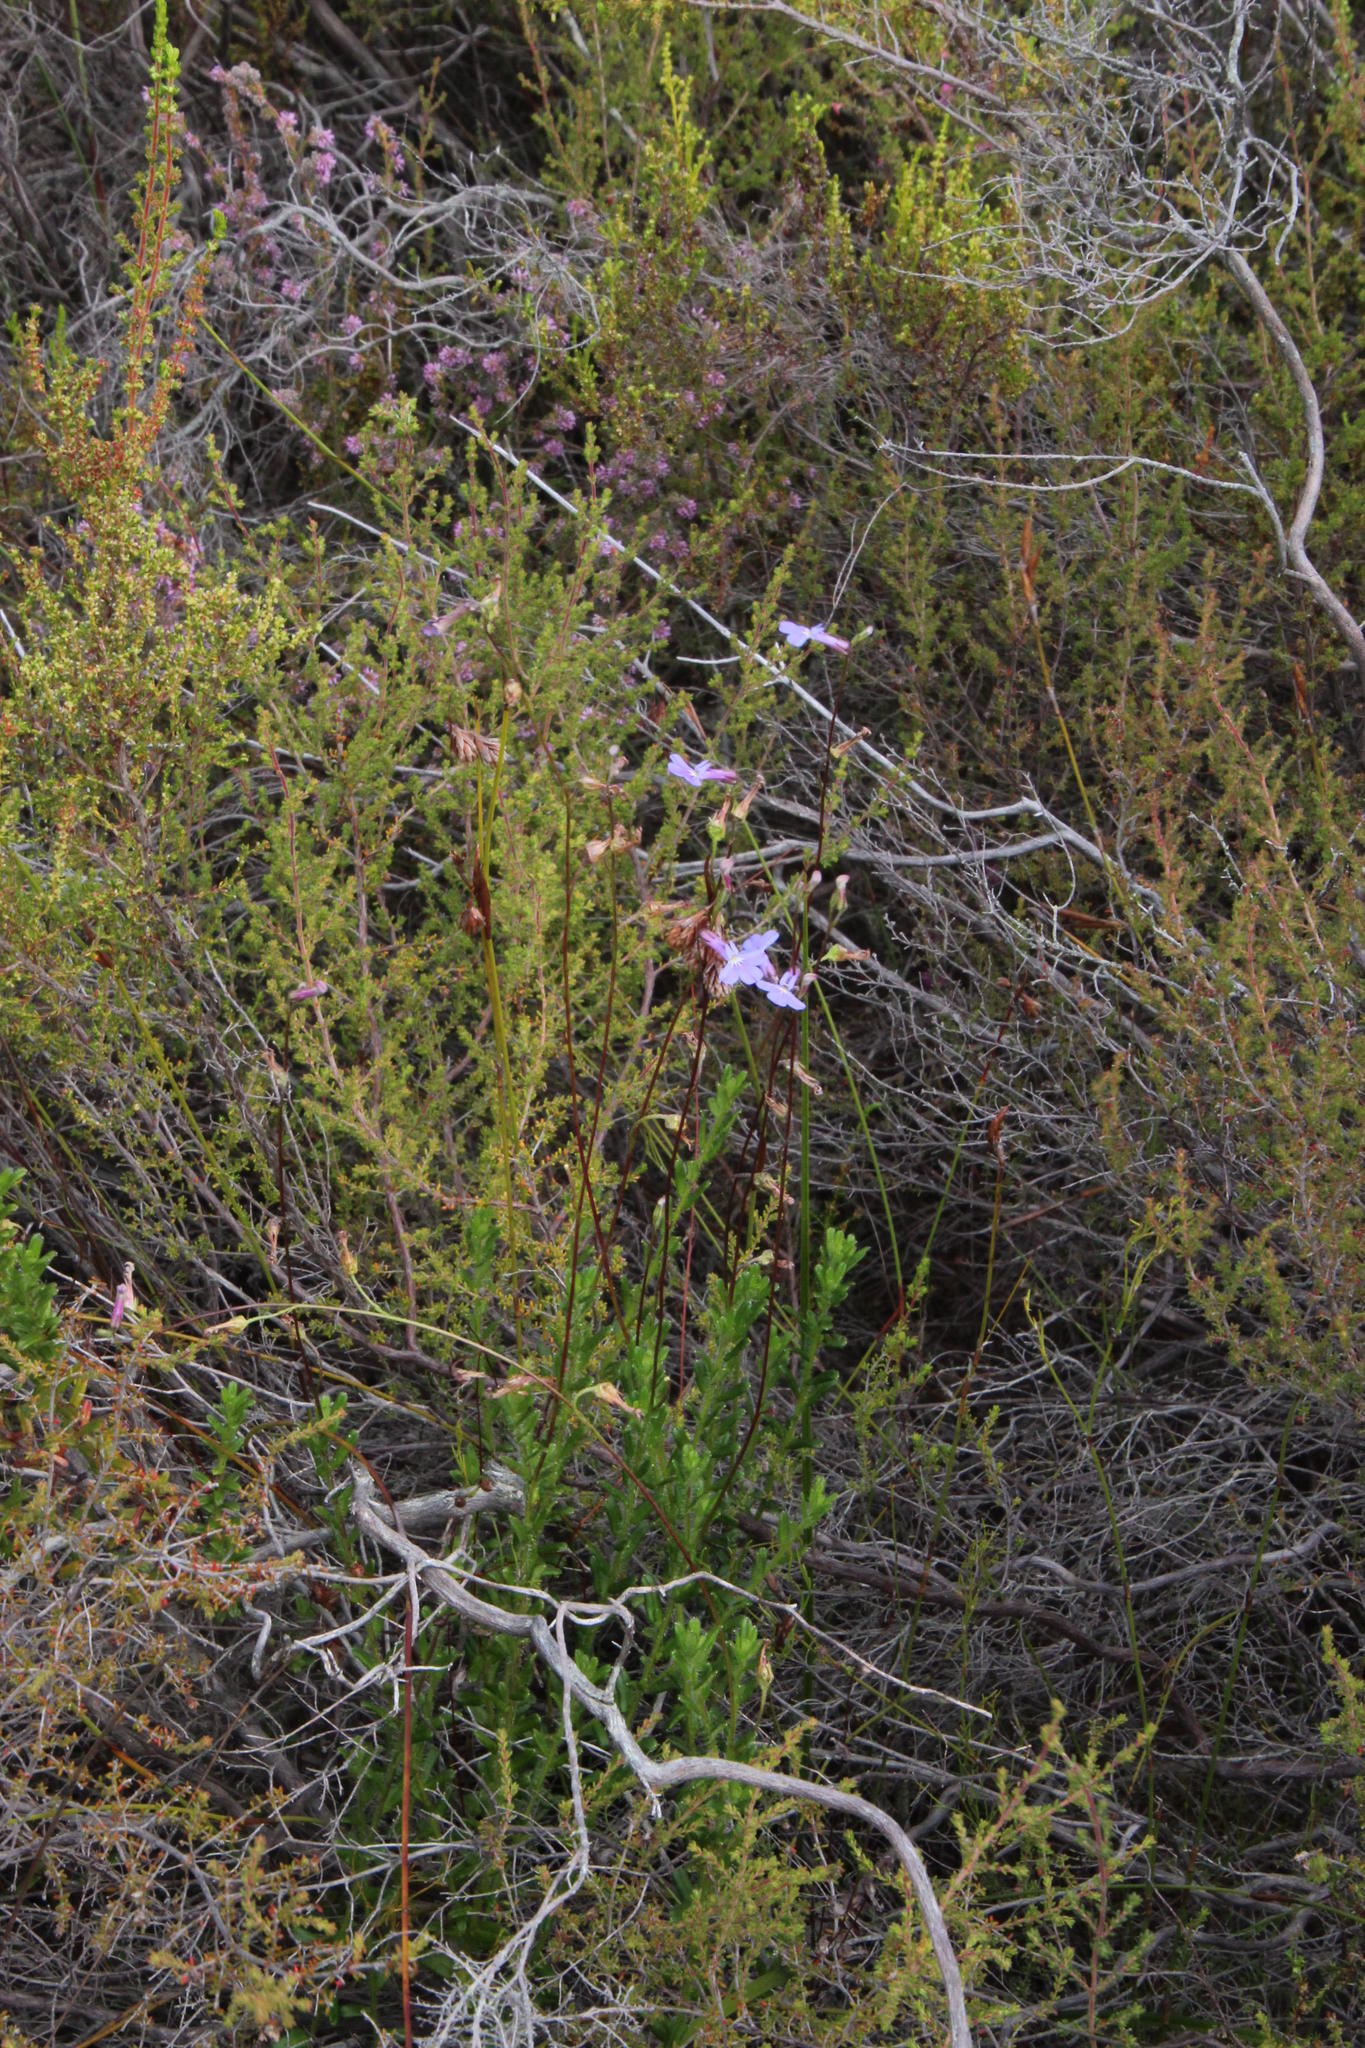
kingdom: Plantae
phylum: Tracheophyta
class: Magnoliopsida
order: Asterales
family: Campanulaceae
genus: Lobelia
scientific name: Lobelia neglecta
